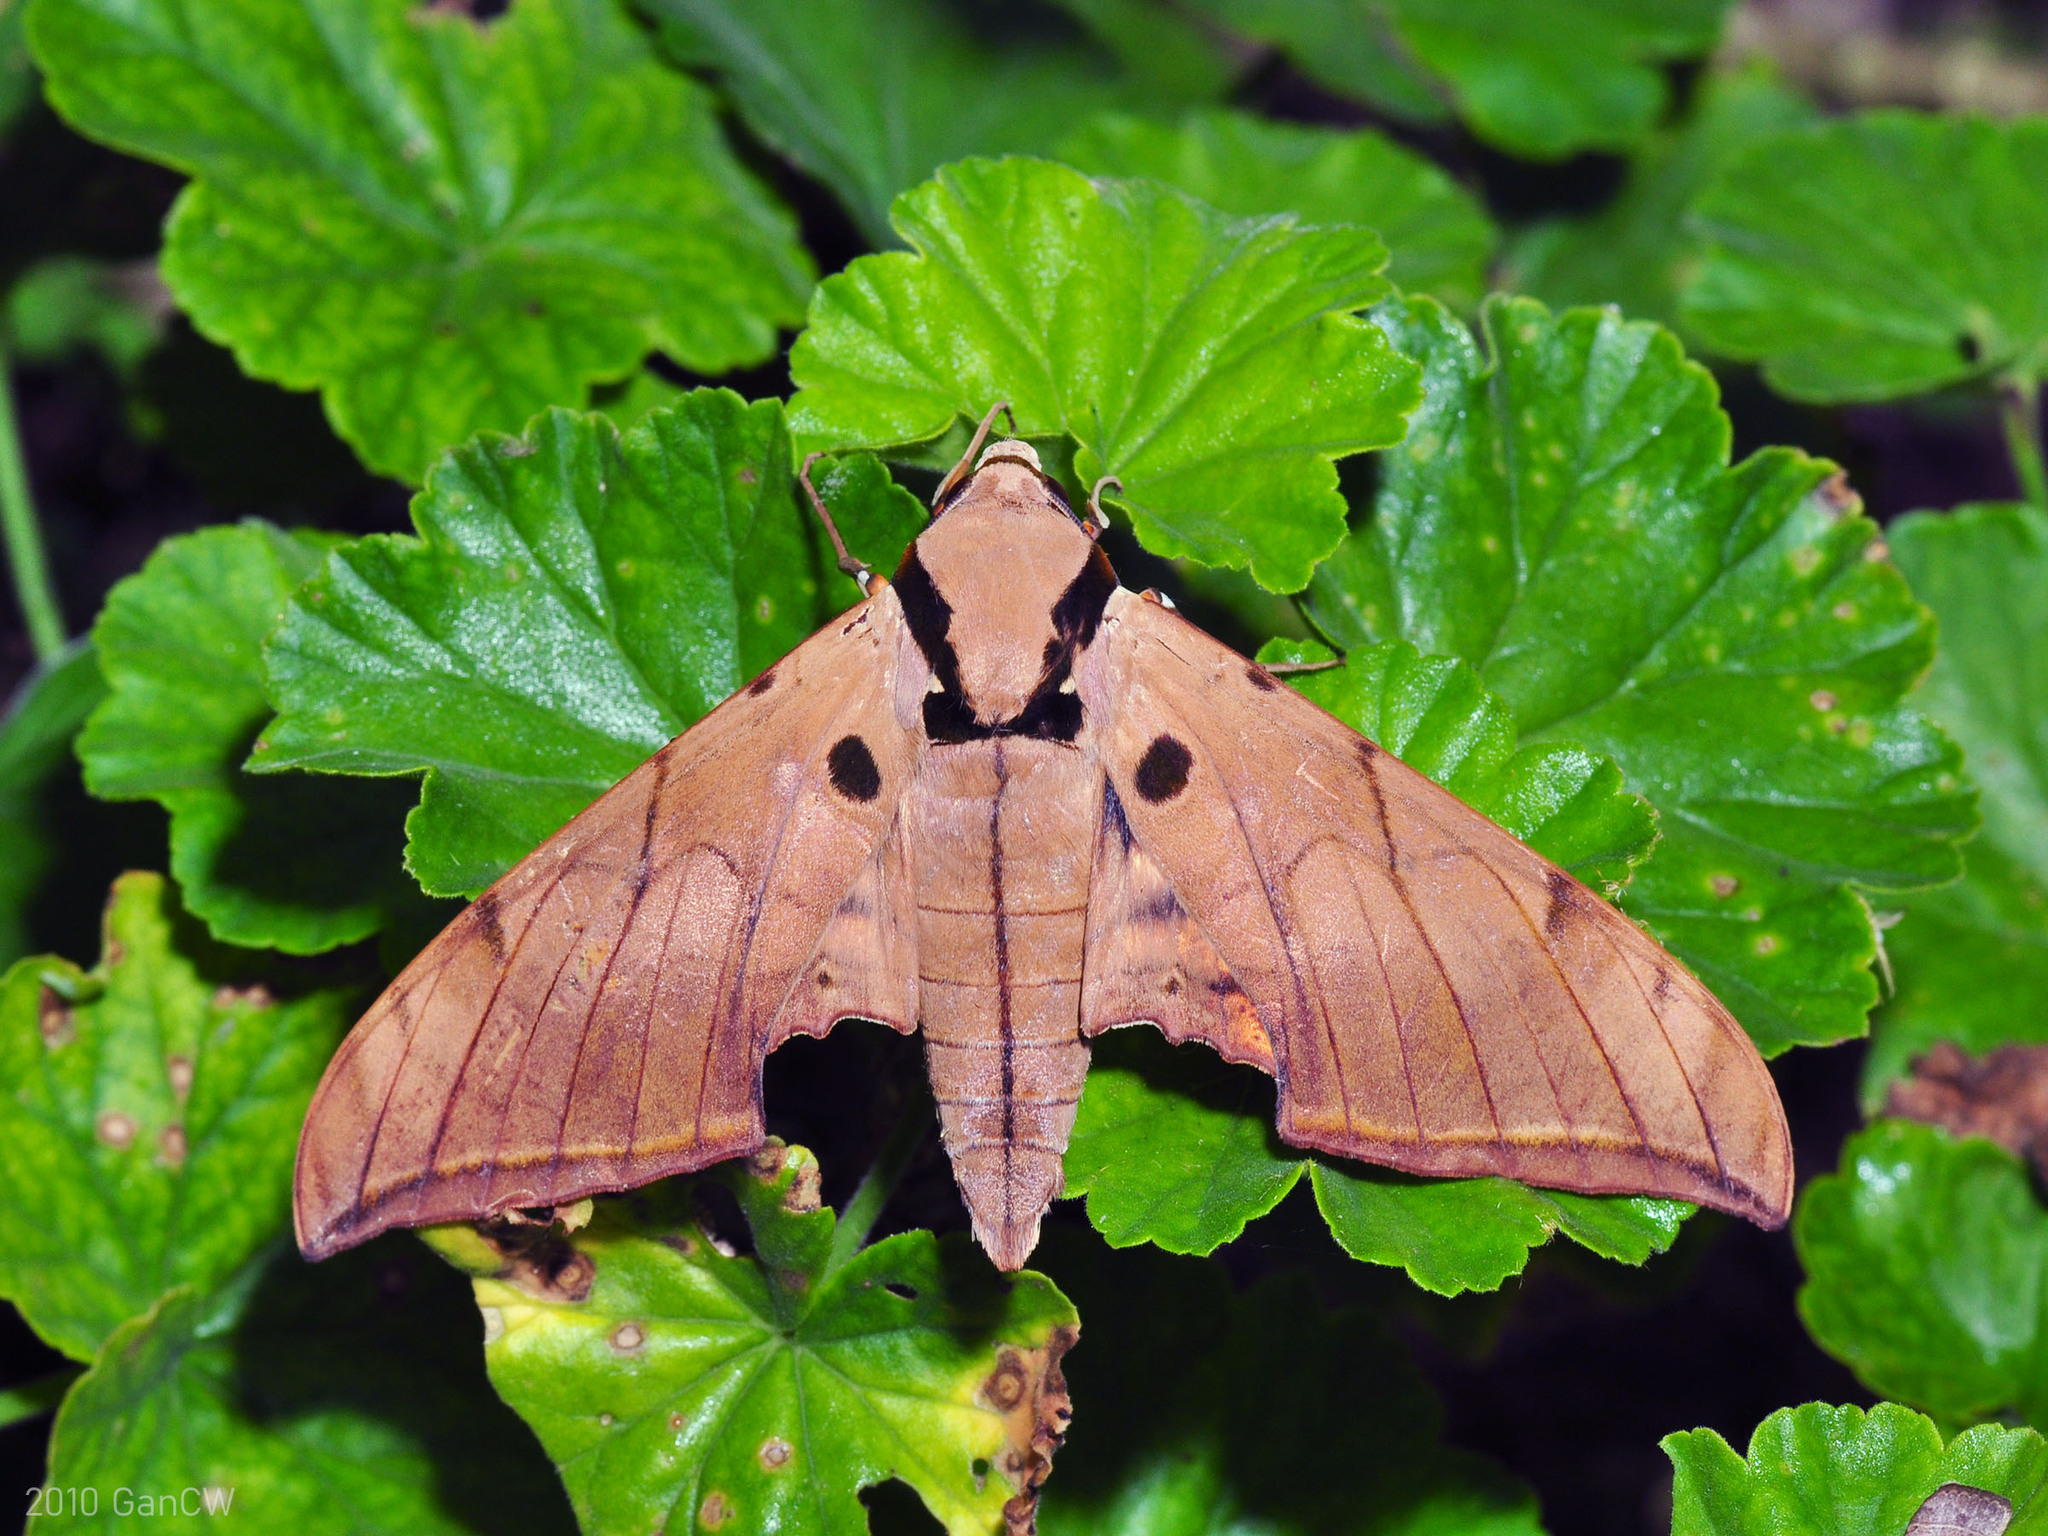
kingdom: Animalia
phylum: Arthropoda
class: Insecta
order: Lepidoptera
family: Sphingidae
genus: Ambulyx
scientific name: Ambulyx pryeri
